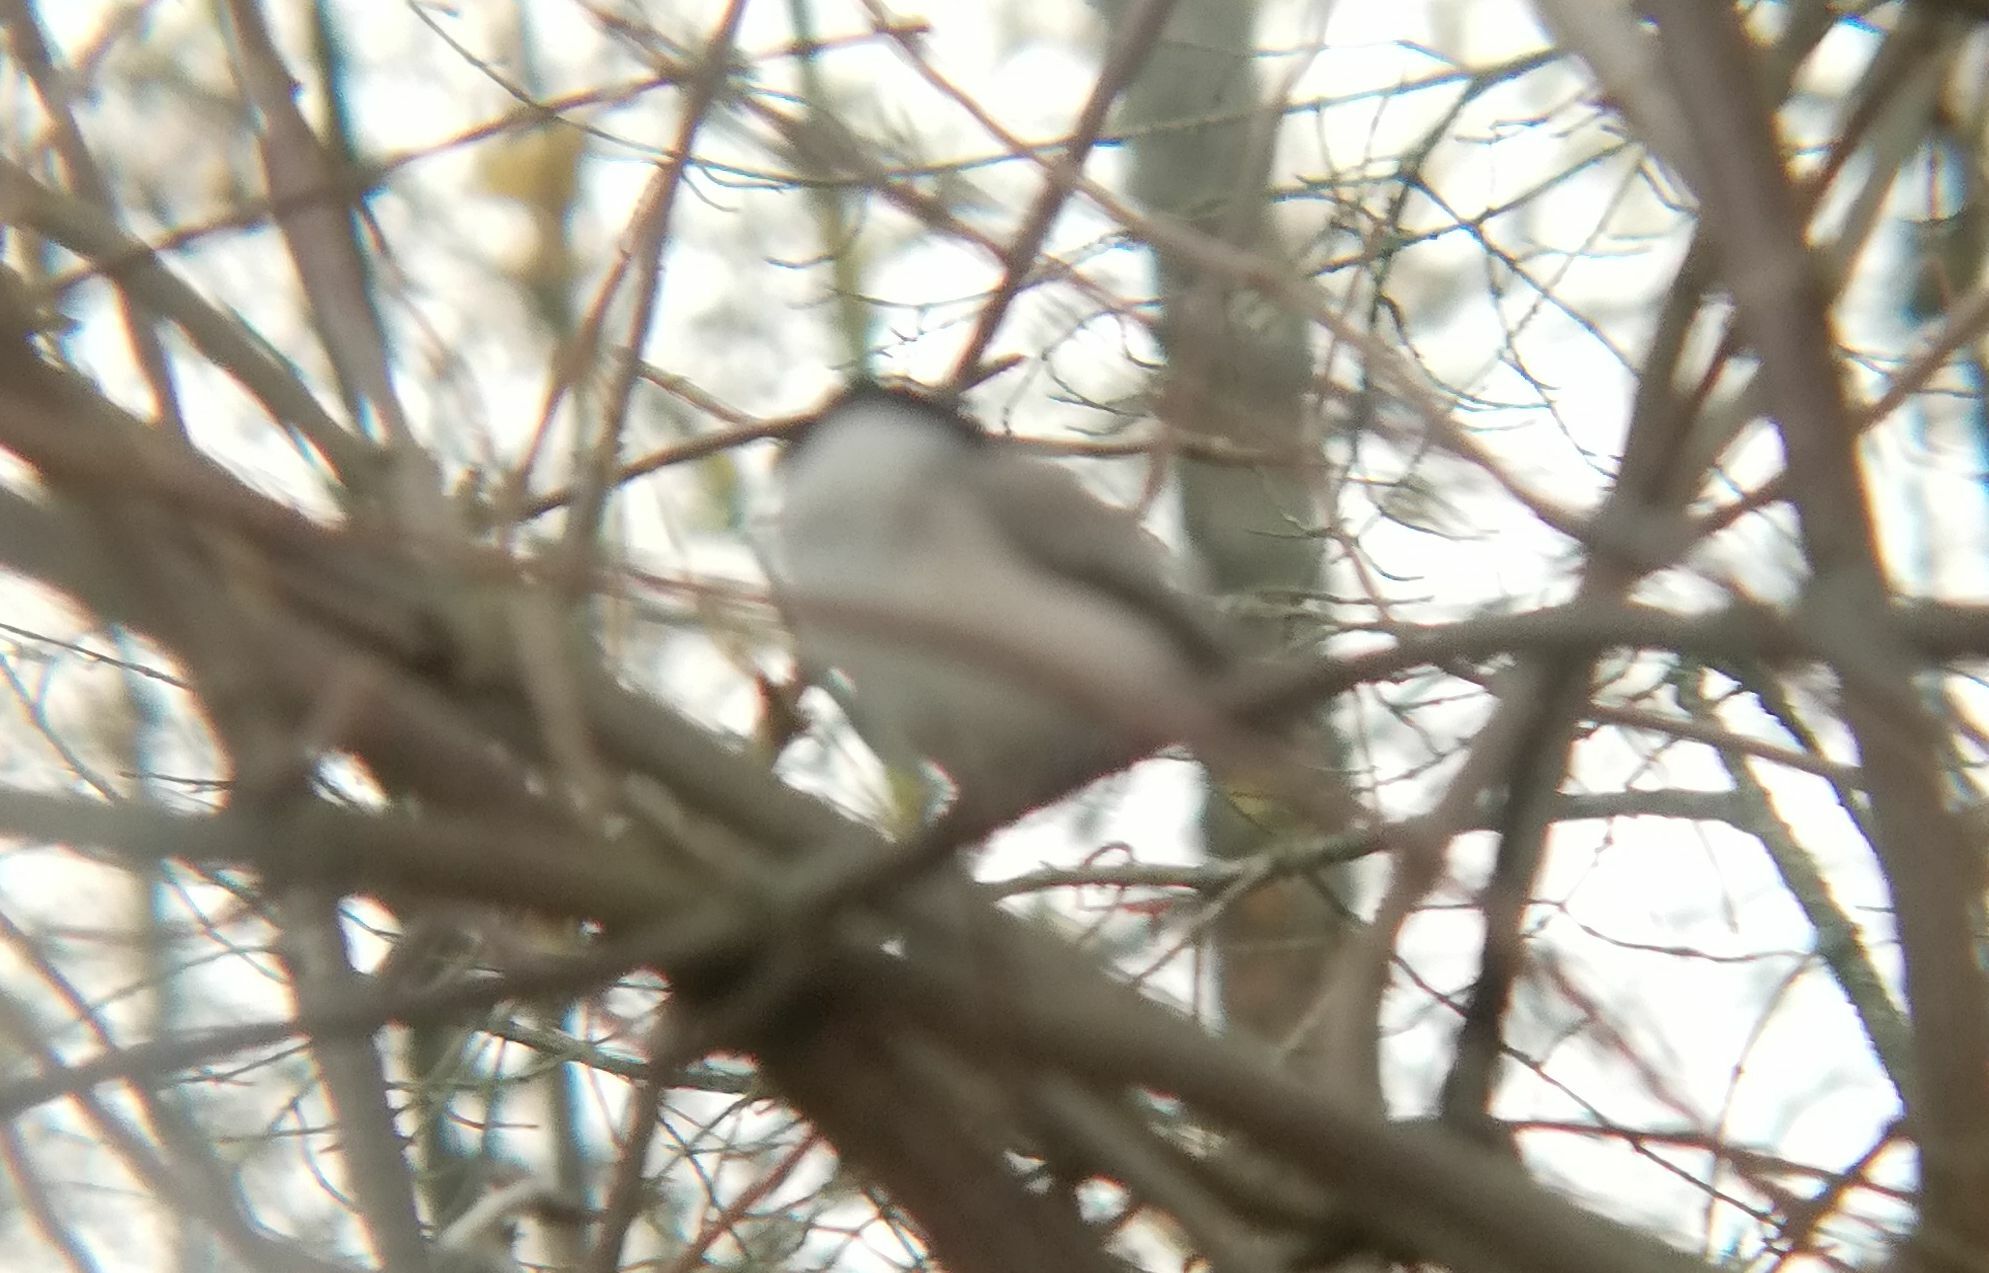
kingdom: Animalia
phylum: Chordata
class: Aves
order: Passeriformes
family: Paridae
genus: Poecile
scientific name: Poecile montanus
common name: Willow tit
